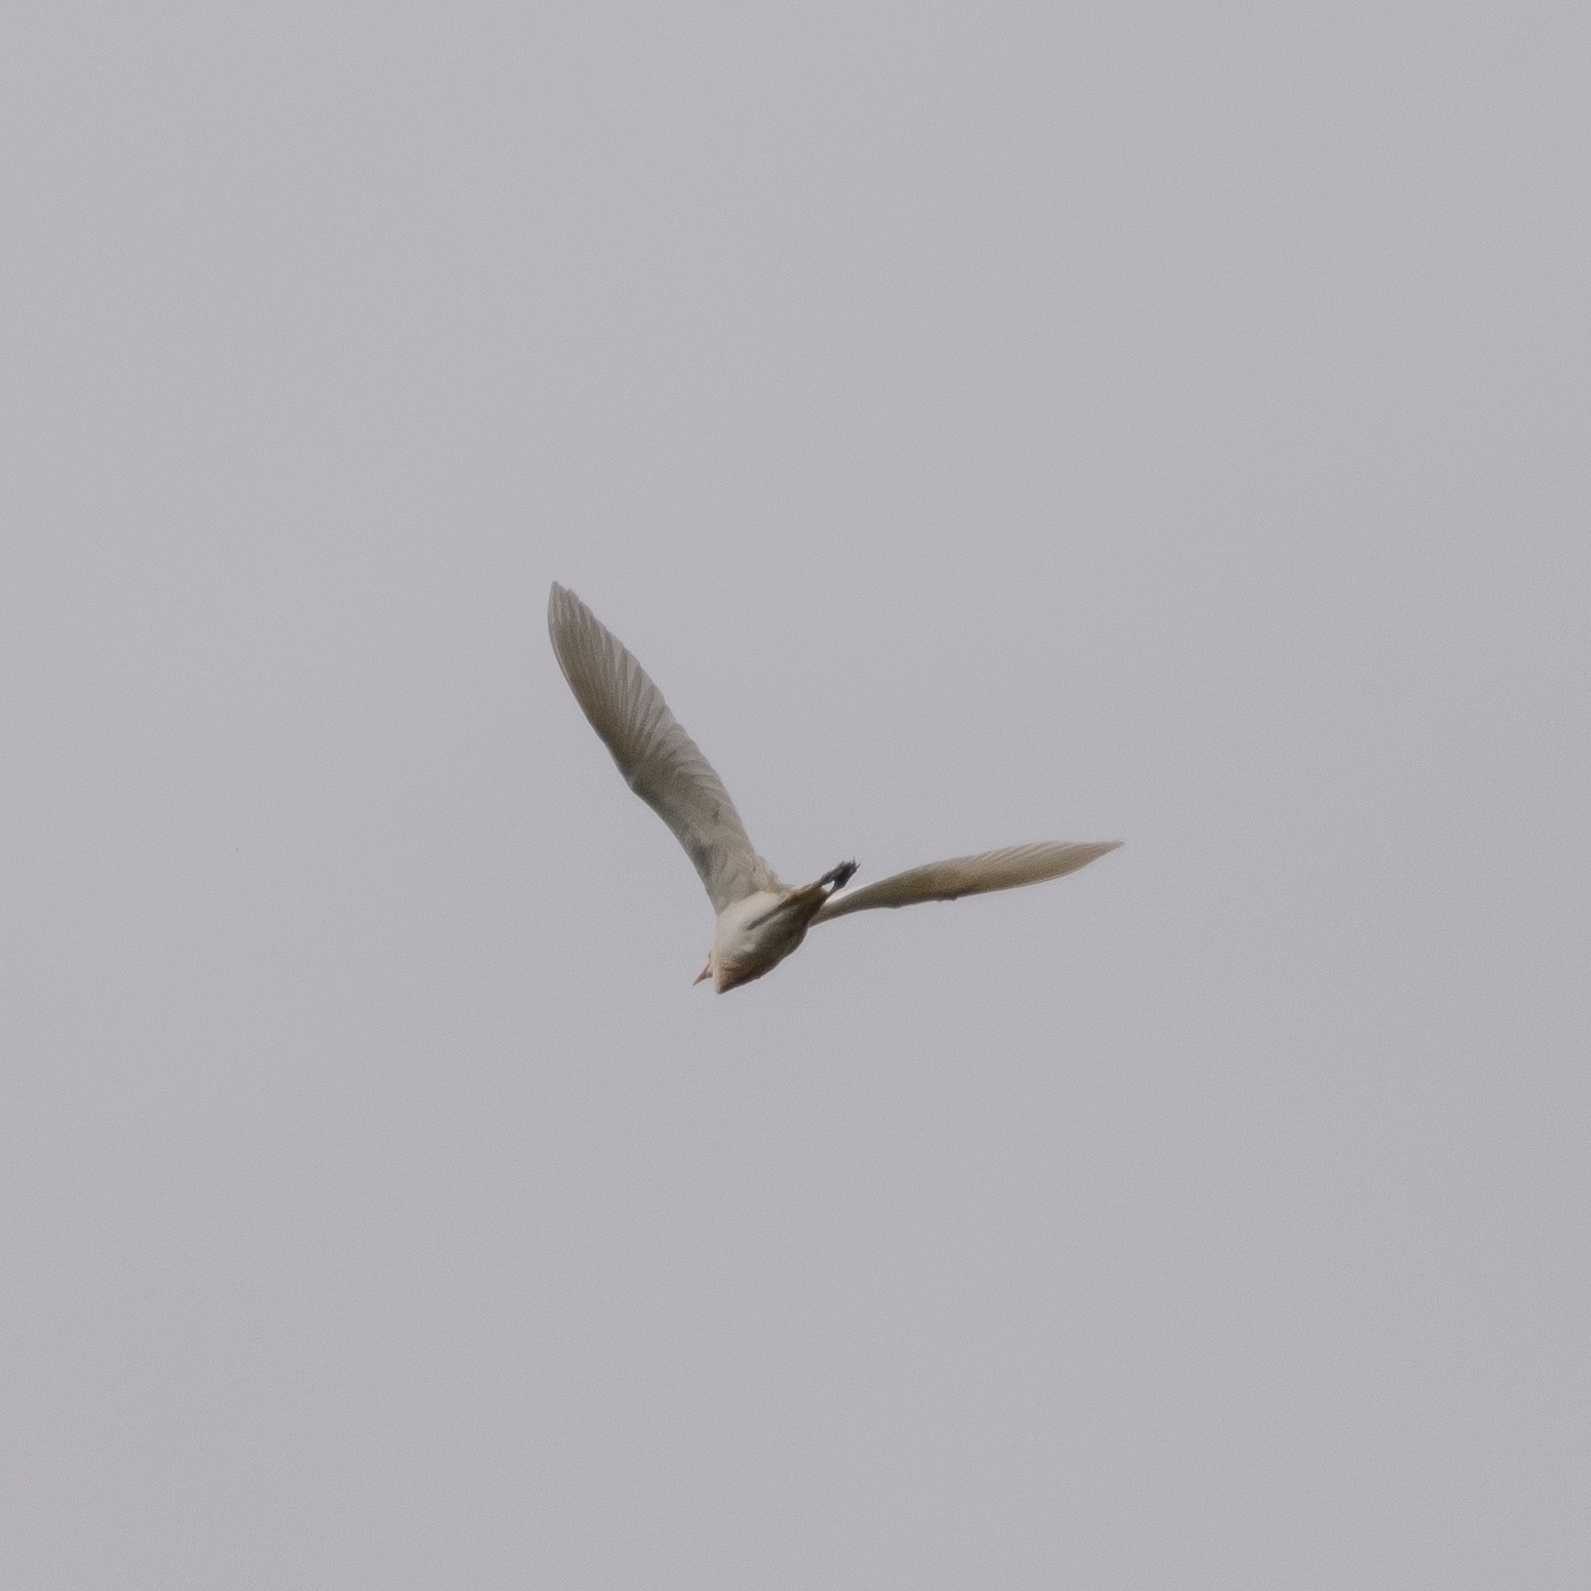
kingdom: Animalia
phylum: Chordata
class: Aves
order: Pelecaniformes
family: Ardeidae
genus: Bubulcus
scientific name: Bubulcus ibis
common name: Cattle egret
